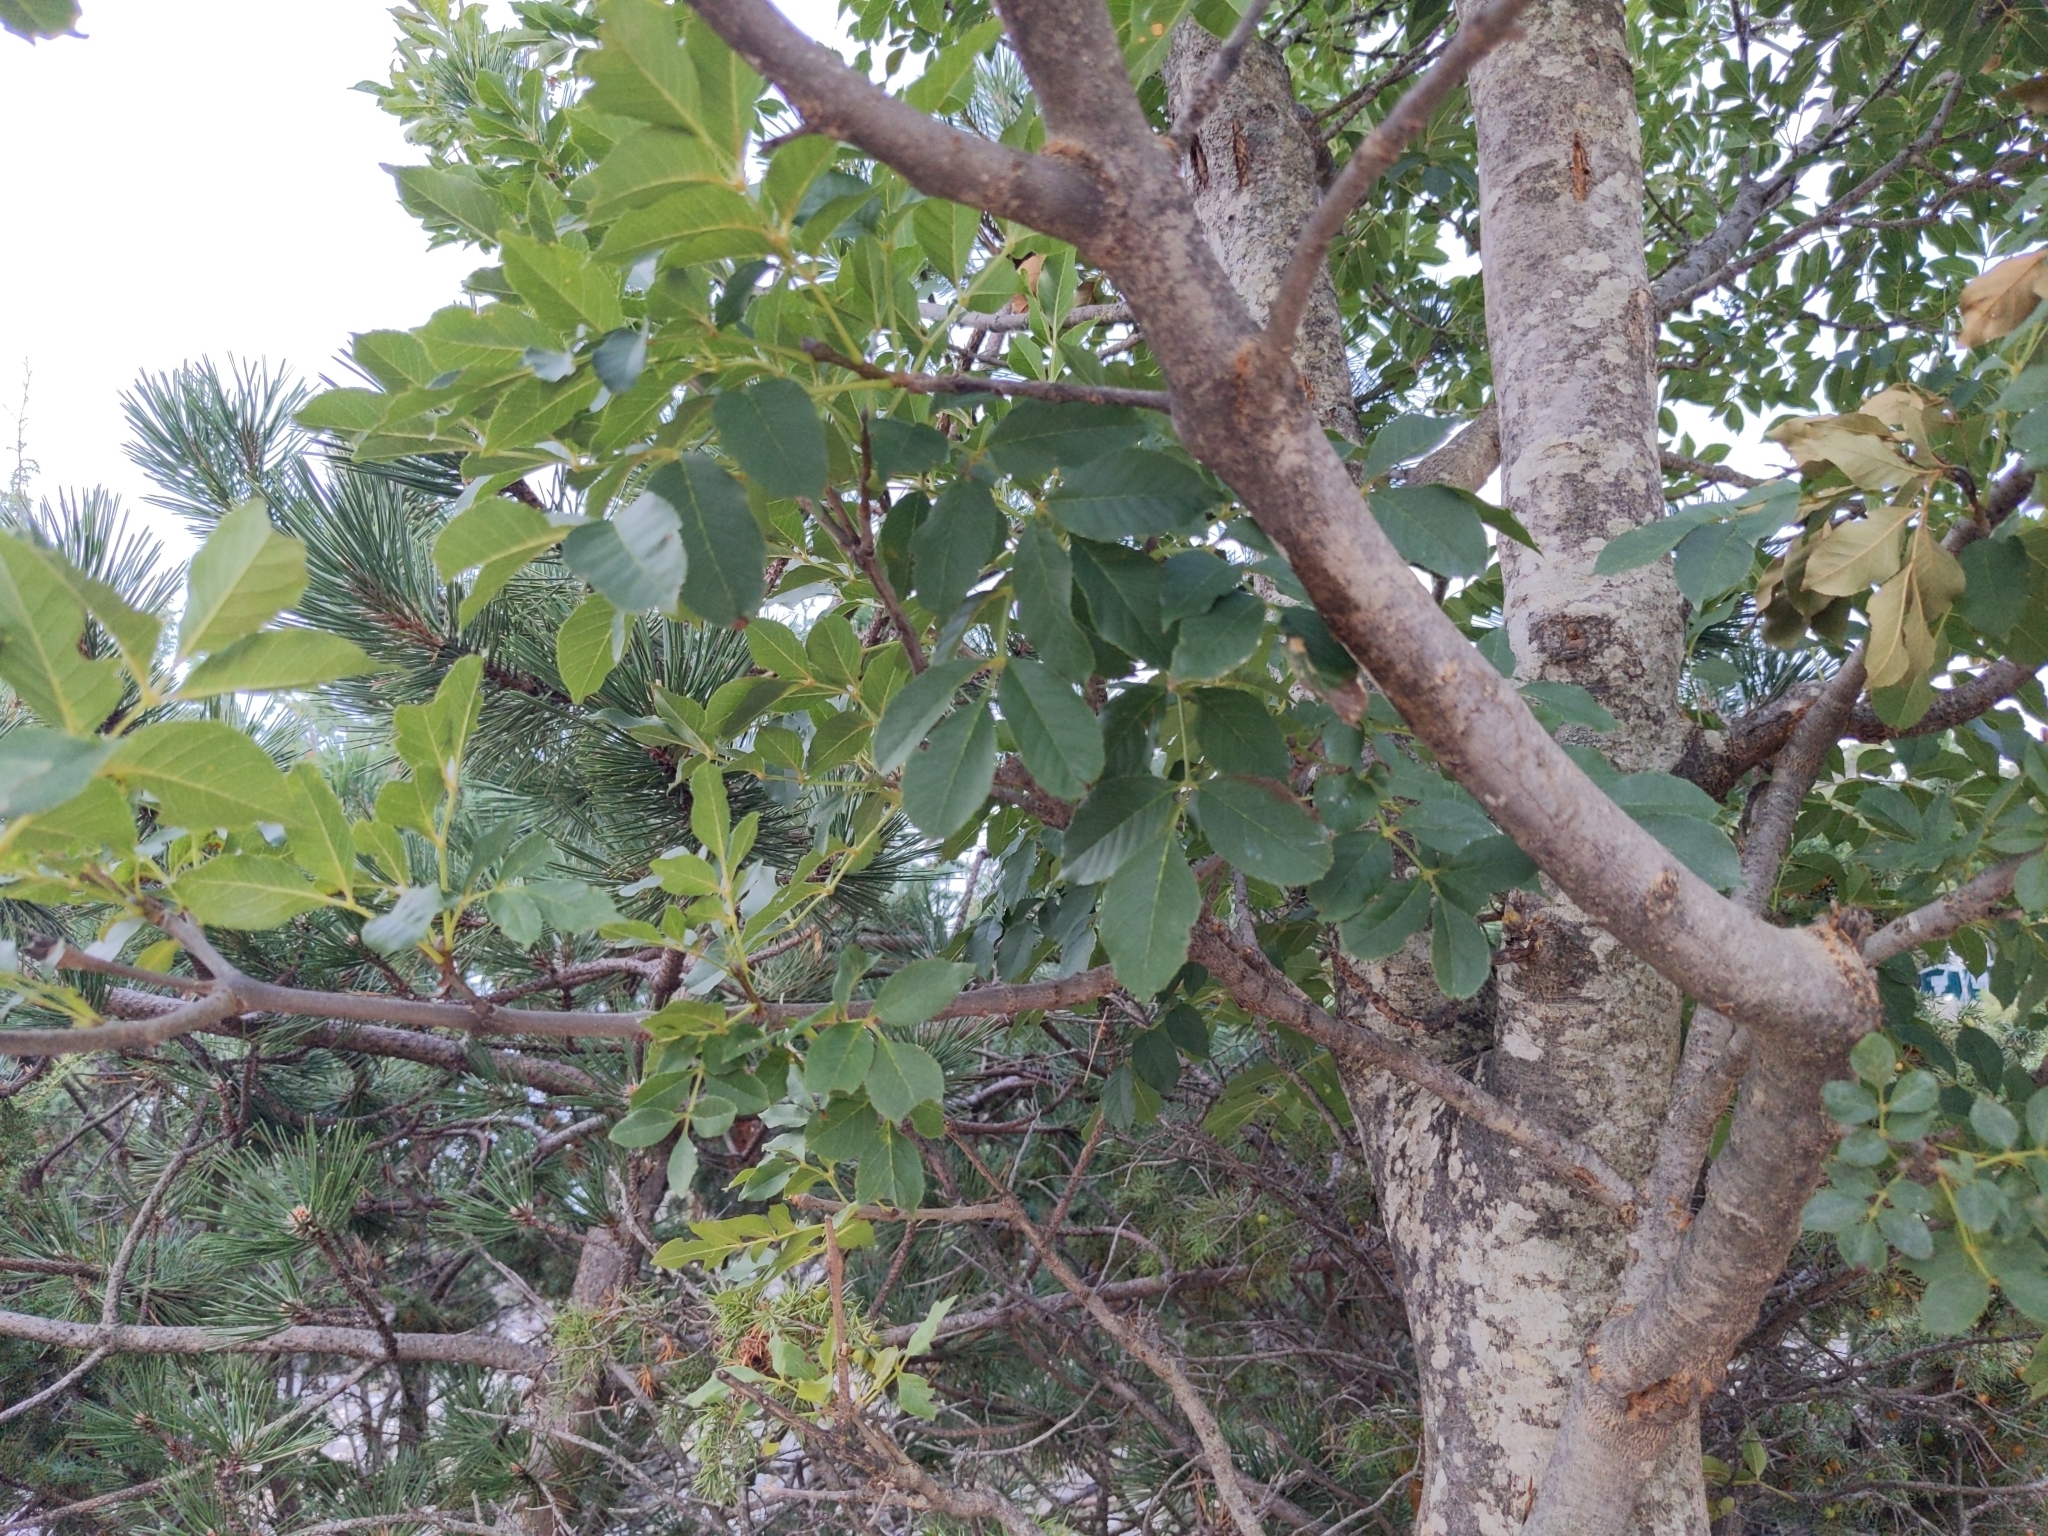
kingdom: Plantae
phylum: Tracheophyta
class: Magnoliopsida
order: Lamiales
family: Oleaceae
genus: Fraxinus
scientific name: Fraxinus ornus
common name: Manna ash
